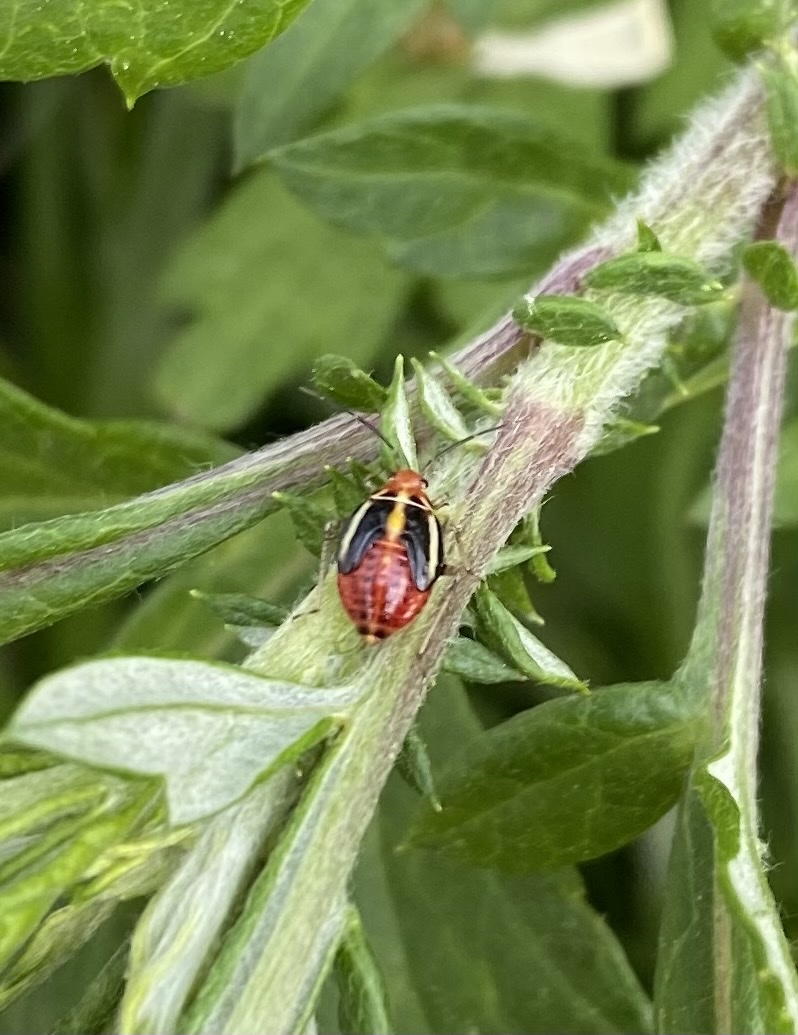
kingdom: Animalia
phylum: Arthropoda
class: Insecta
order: Hemiptera
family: Miridae
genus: Poecilocapsus
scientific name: Poecilocapsus lineatus
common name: Four-lined plant bug
